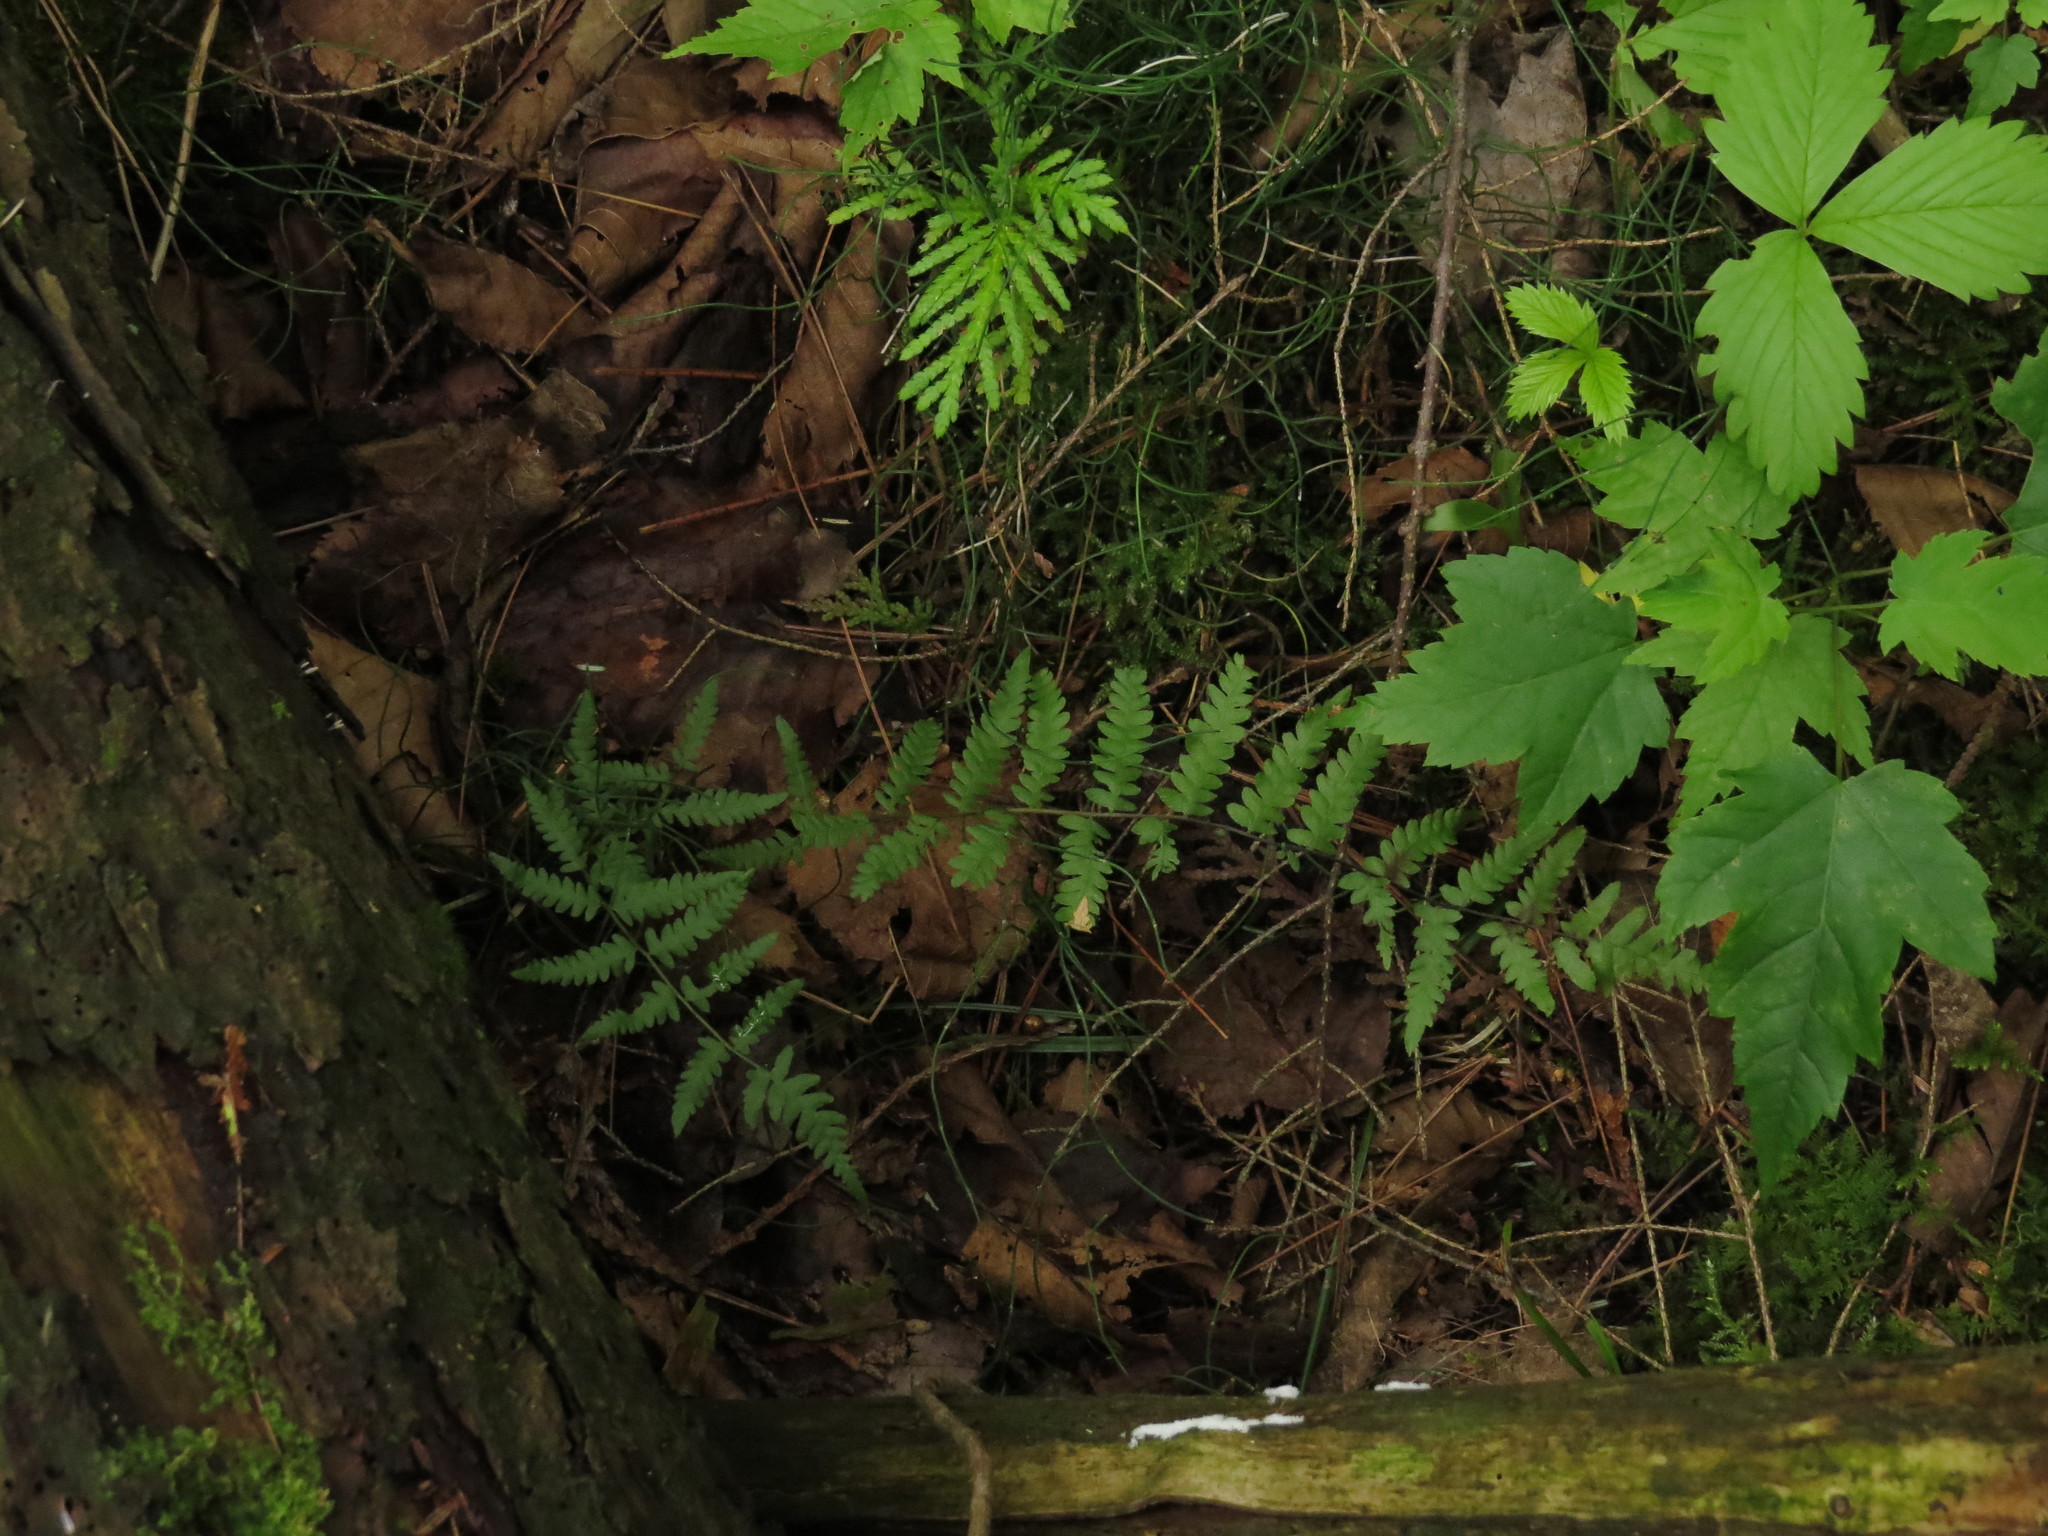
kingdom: Plantae
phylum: Tracheophyta
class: Polypodiopsida
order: Polypodiales
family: Thelypteridaceae
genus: Thelypteris
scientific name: Thelypteris palustris
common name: Marsh fern
